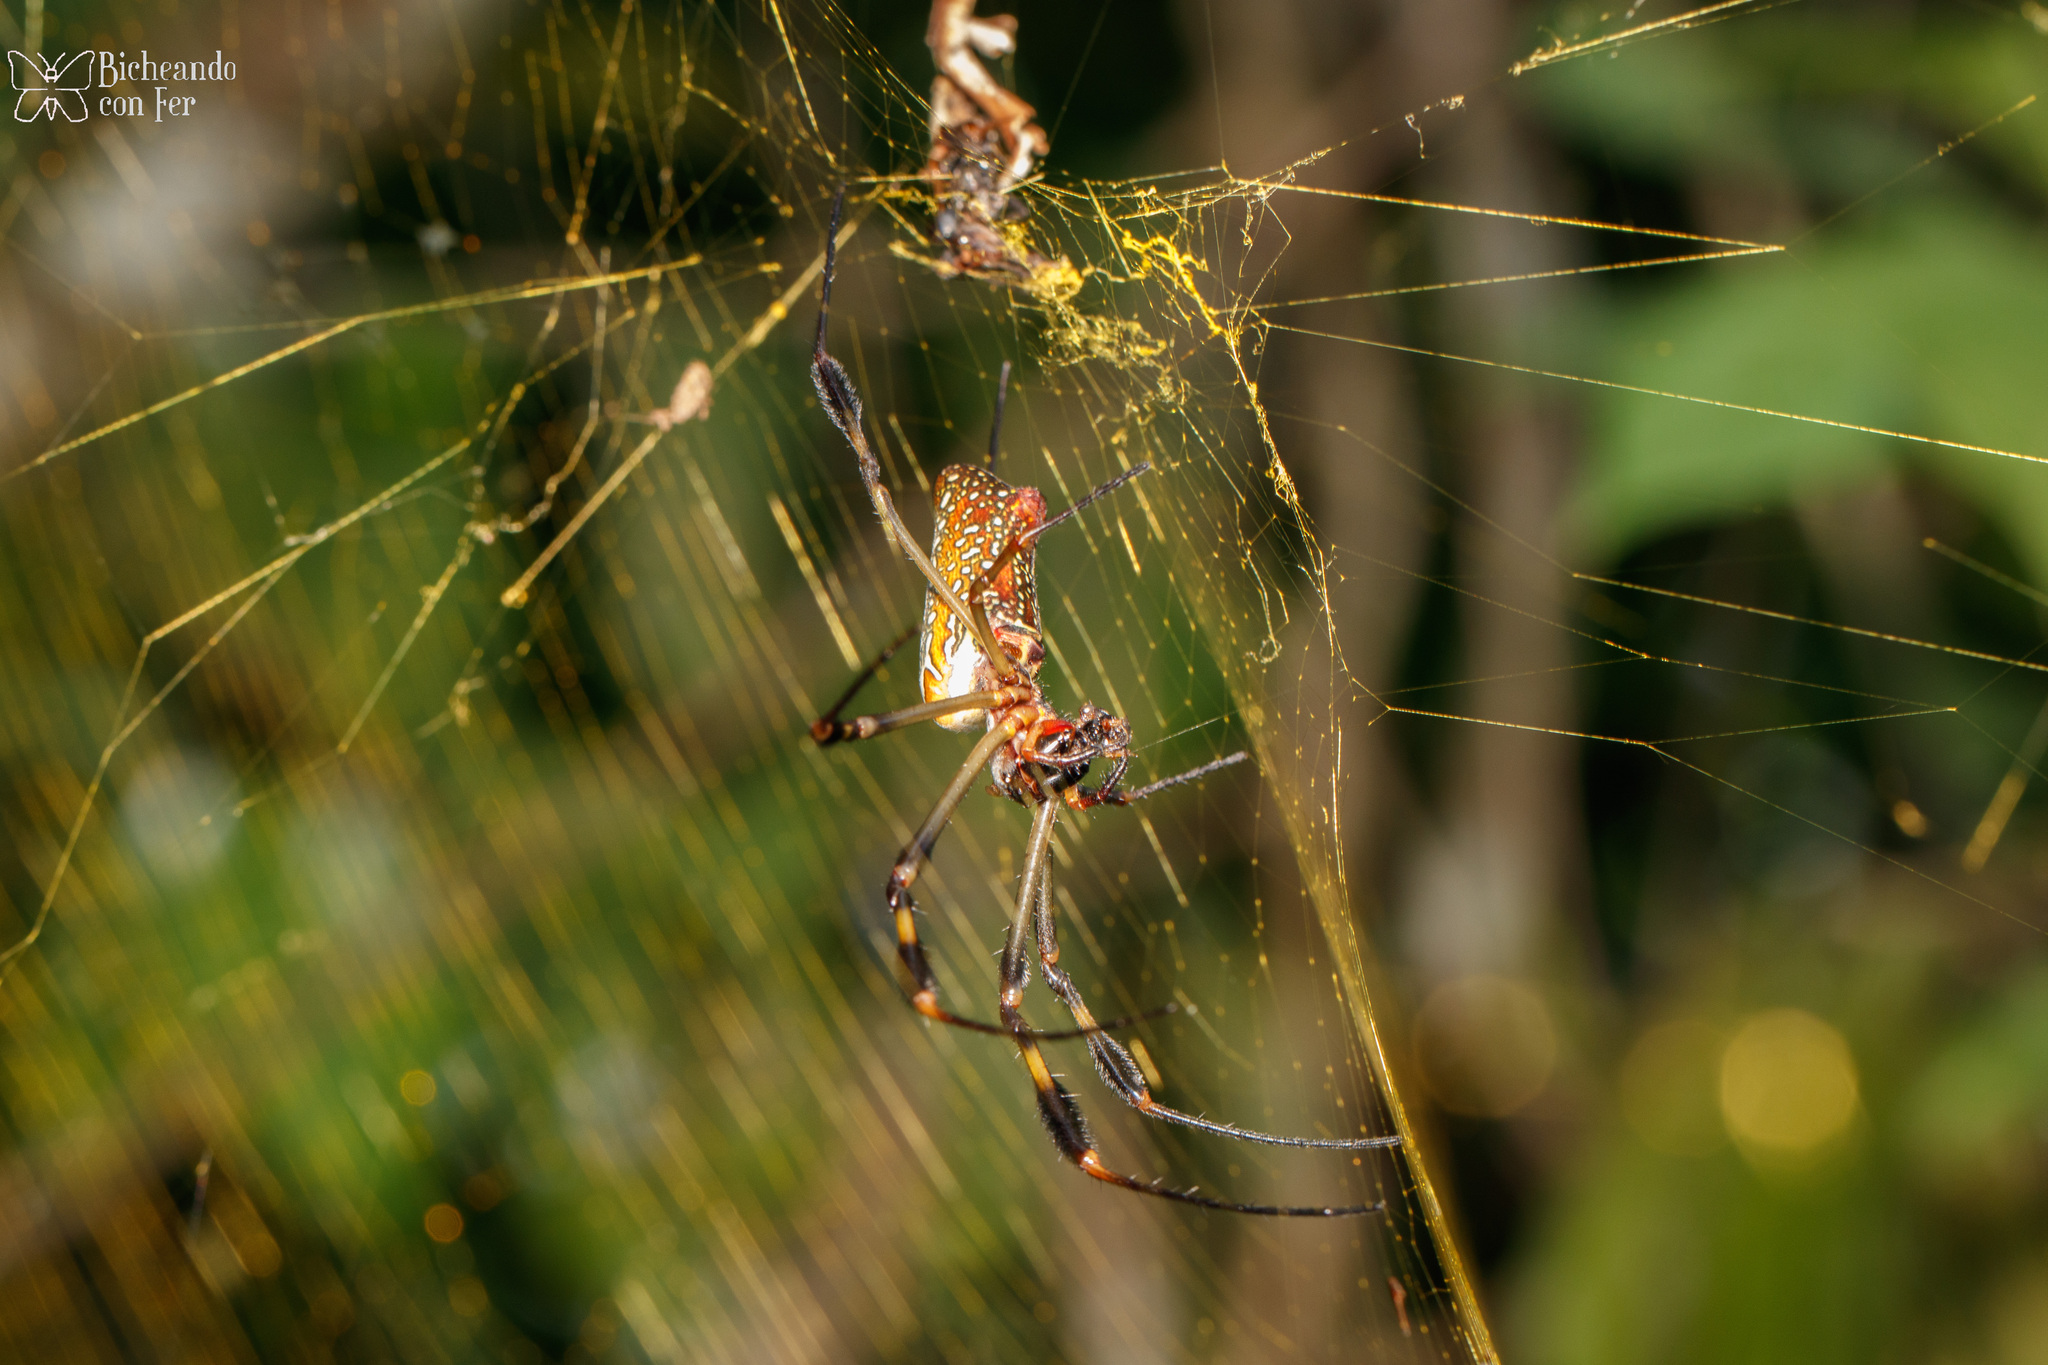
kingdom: Animalia
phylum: Arthropoda
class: Arachnida
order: Araneae
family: Araneidae
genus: Trichonephila
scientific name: Trichonephila clavipes
